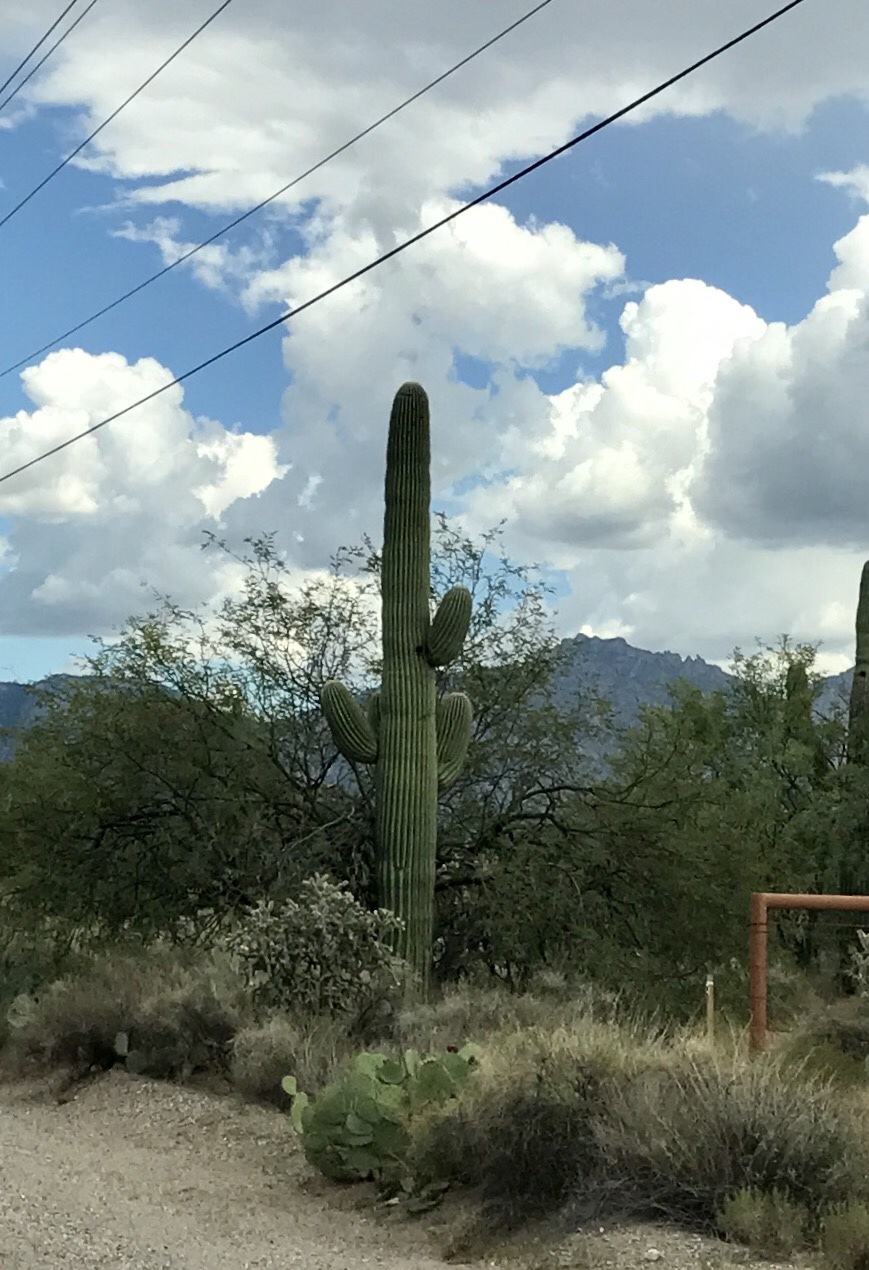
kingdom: Plantae
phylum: Tracheophyta
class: Magnoliopsida
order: Caryophyllales
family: Cactaceae
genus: Carnegiea
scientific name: Carnegiea gigantea
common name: Saguaro
